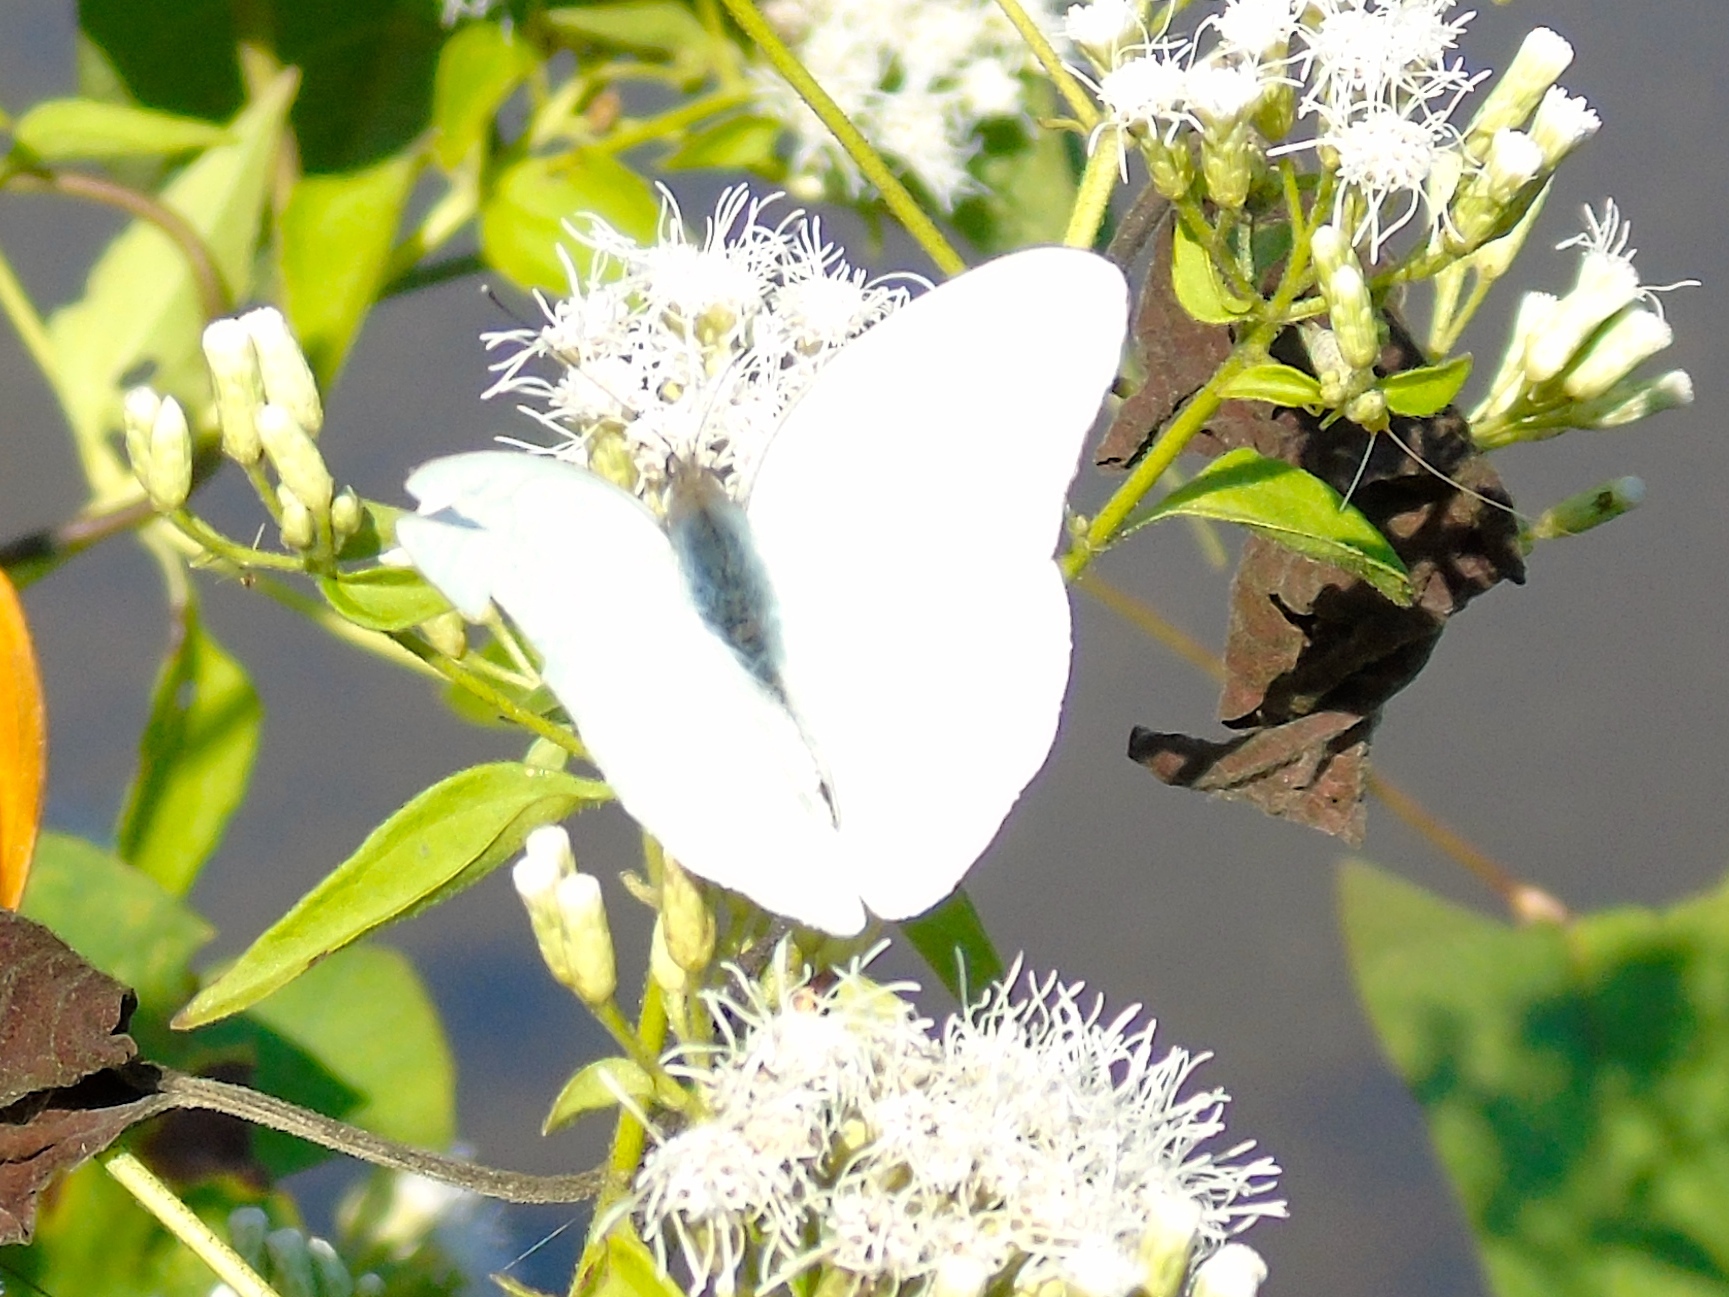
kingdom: Animalia
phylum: Arthropoda
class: Insecta
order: Lepidoptera
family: Pieridae
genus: Glutophrissa
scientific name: Glutophrissa drusilla
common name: Florida white
